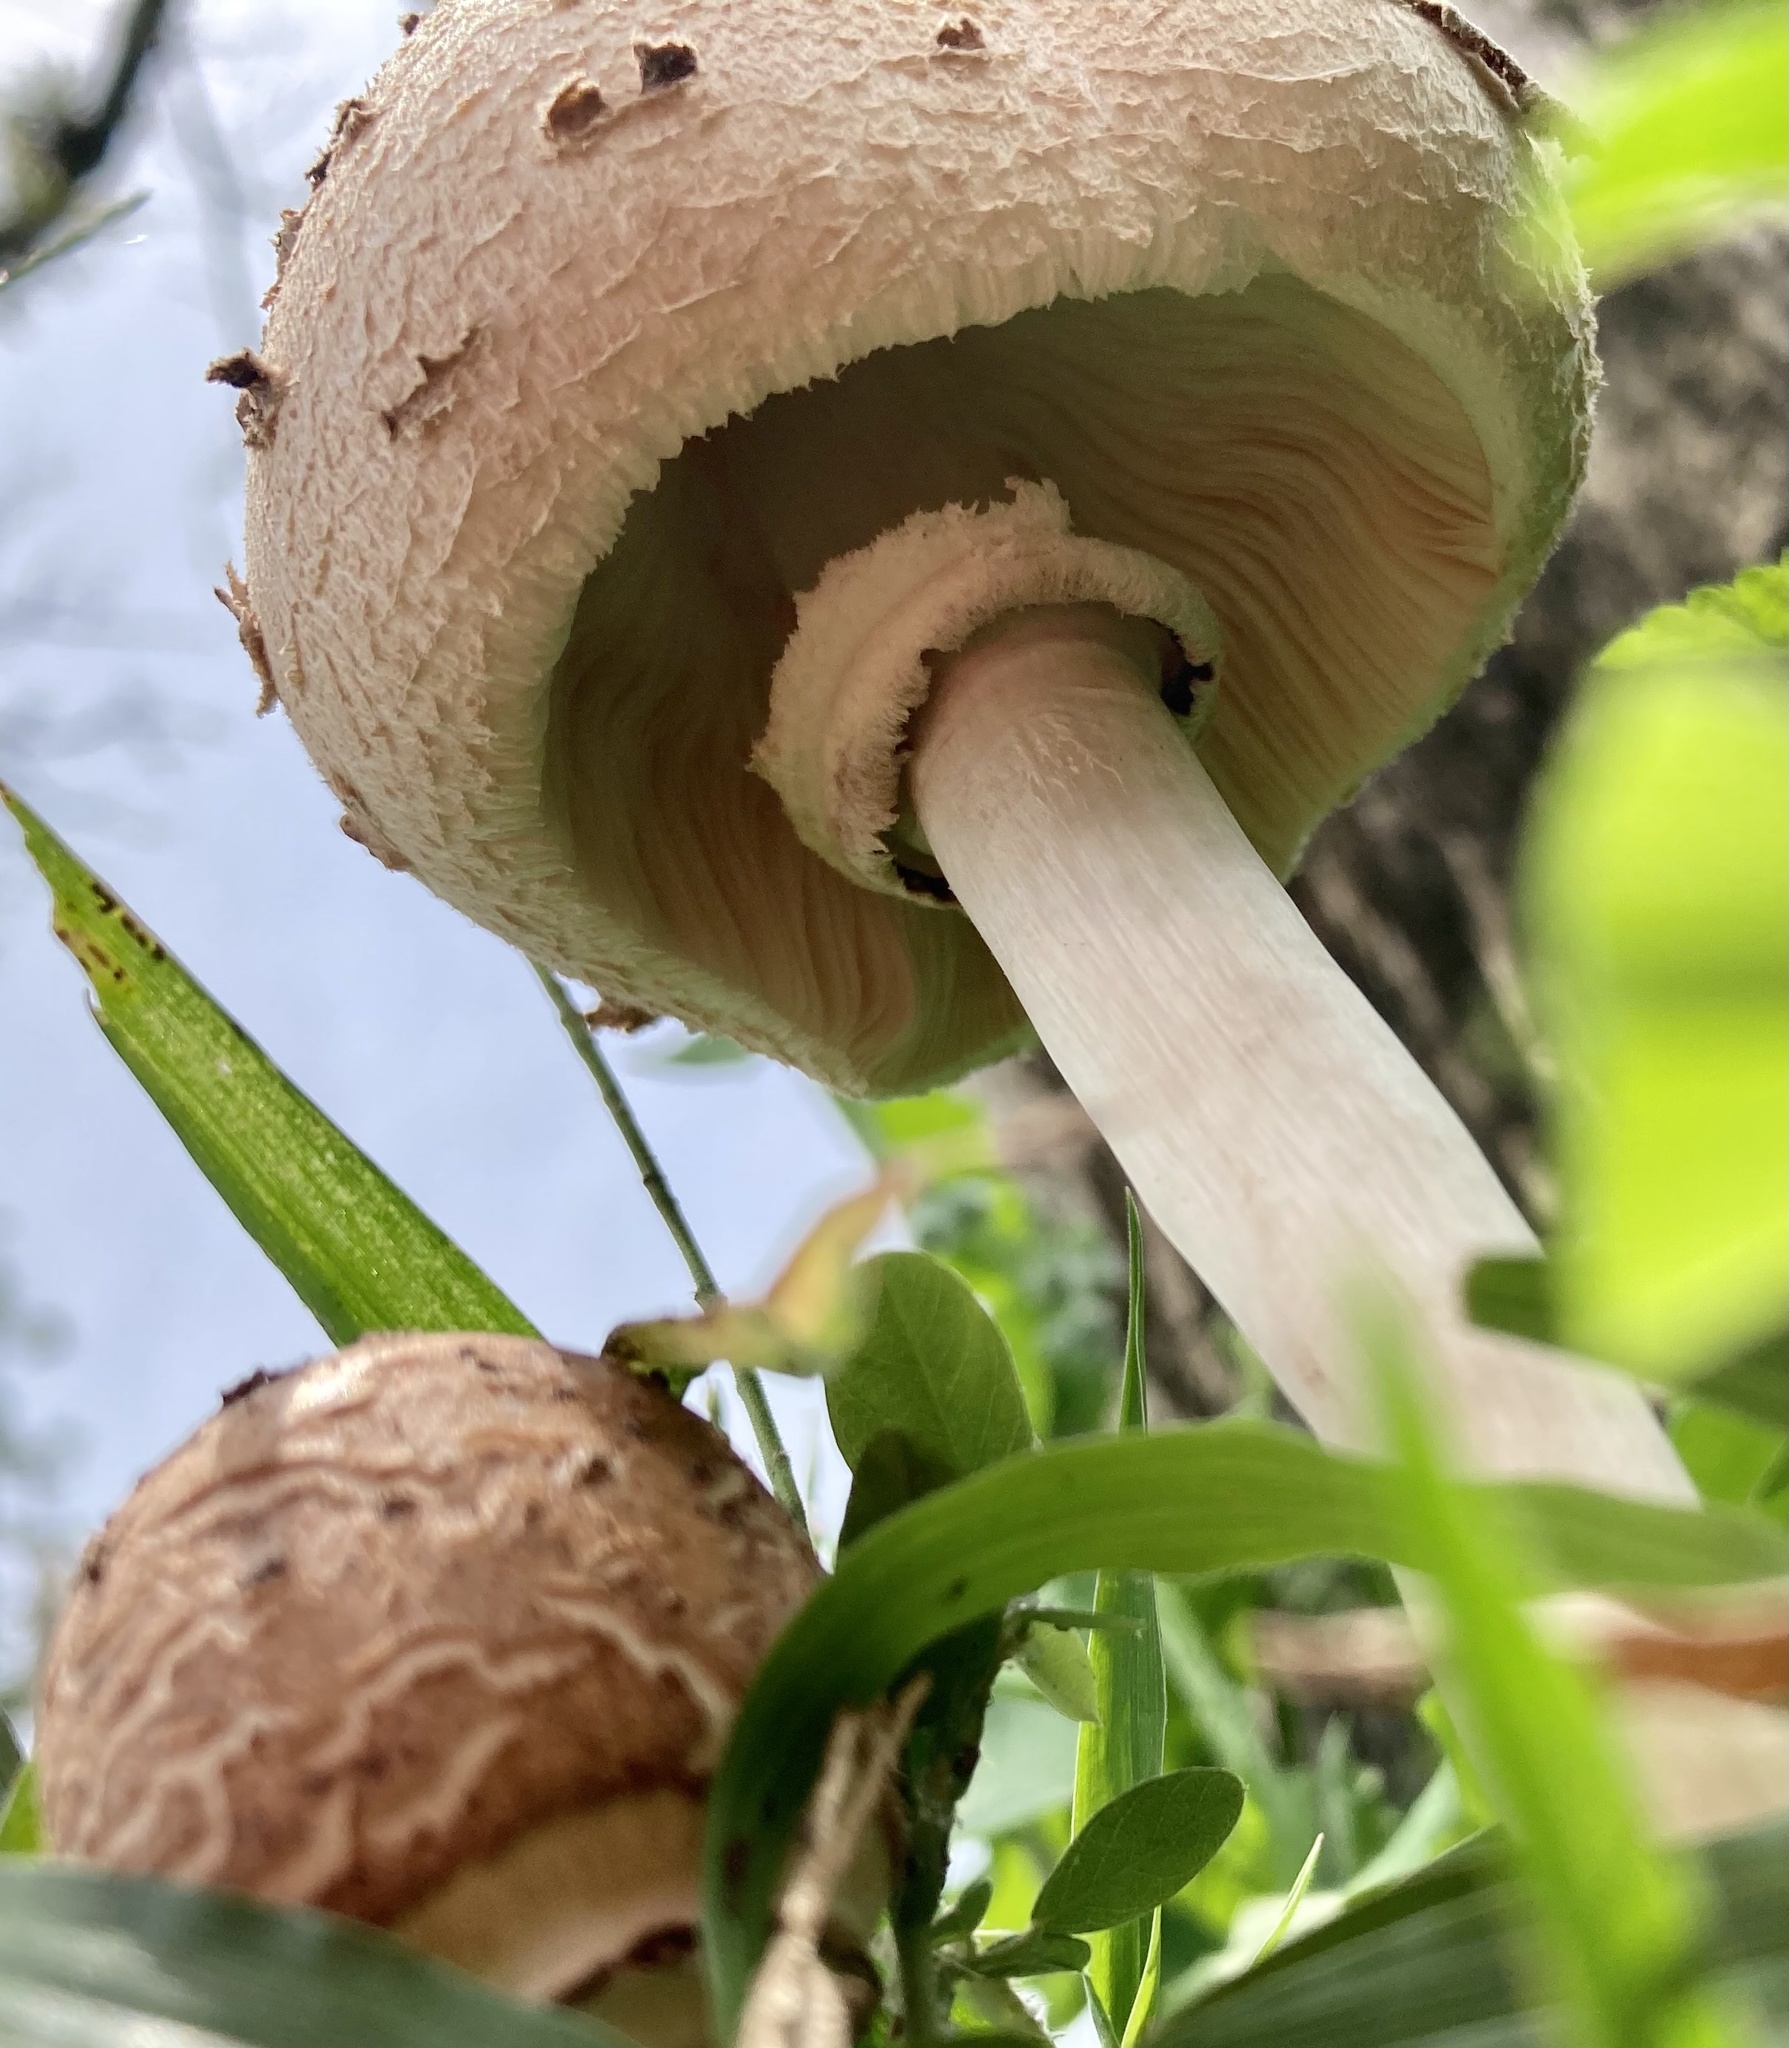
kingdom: Fungi
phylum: Basidiomycota
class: Agaricomycetes
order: Agaricales
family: Agaricaceae
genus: Chlorophyllum
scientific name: Chlorophyllum molybdites
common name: False parasol
